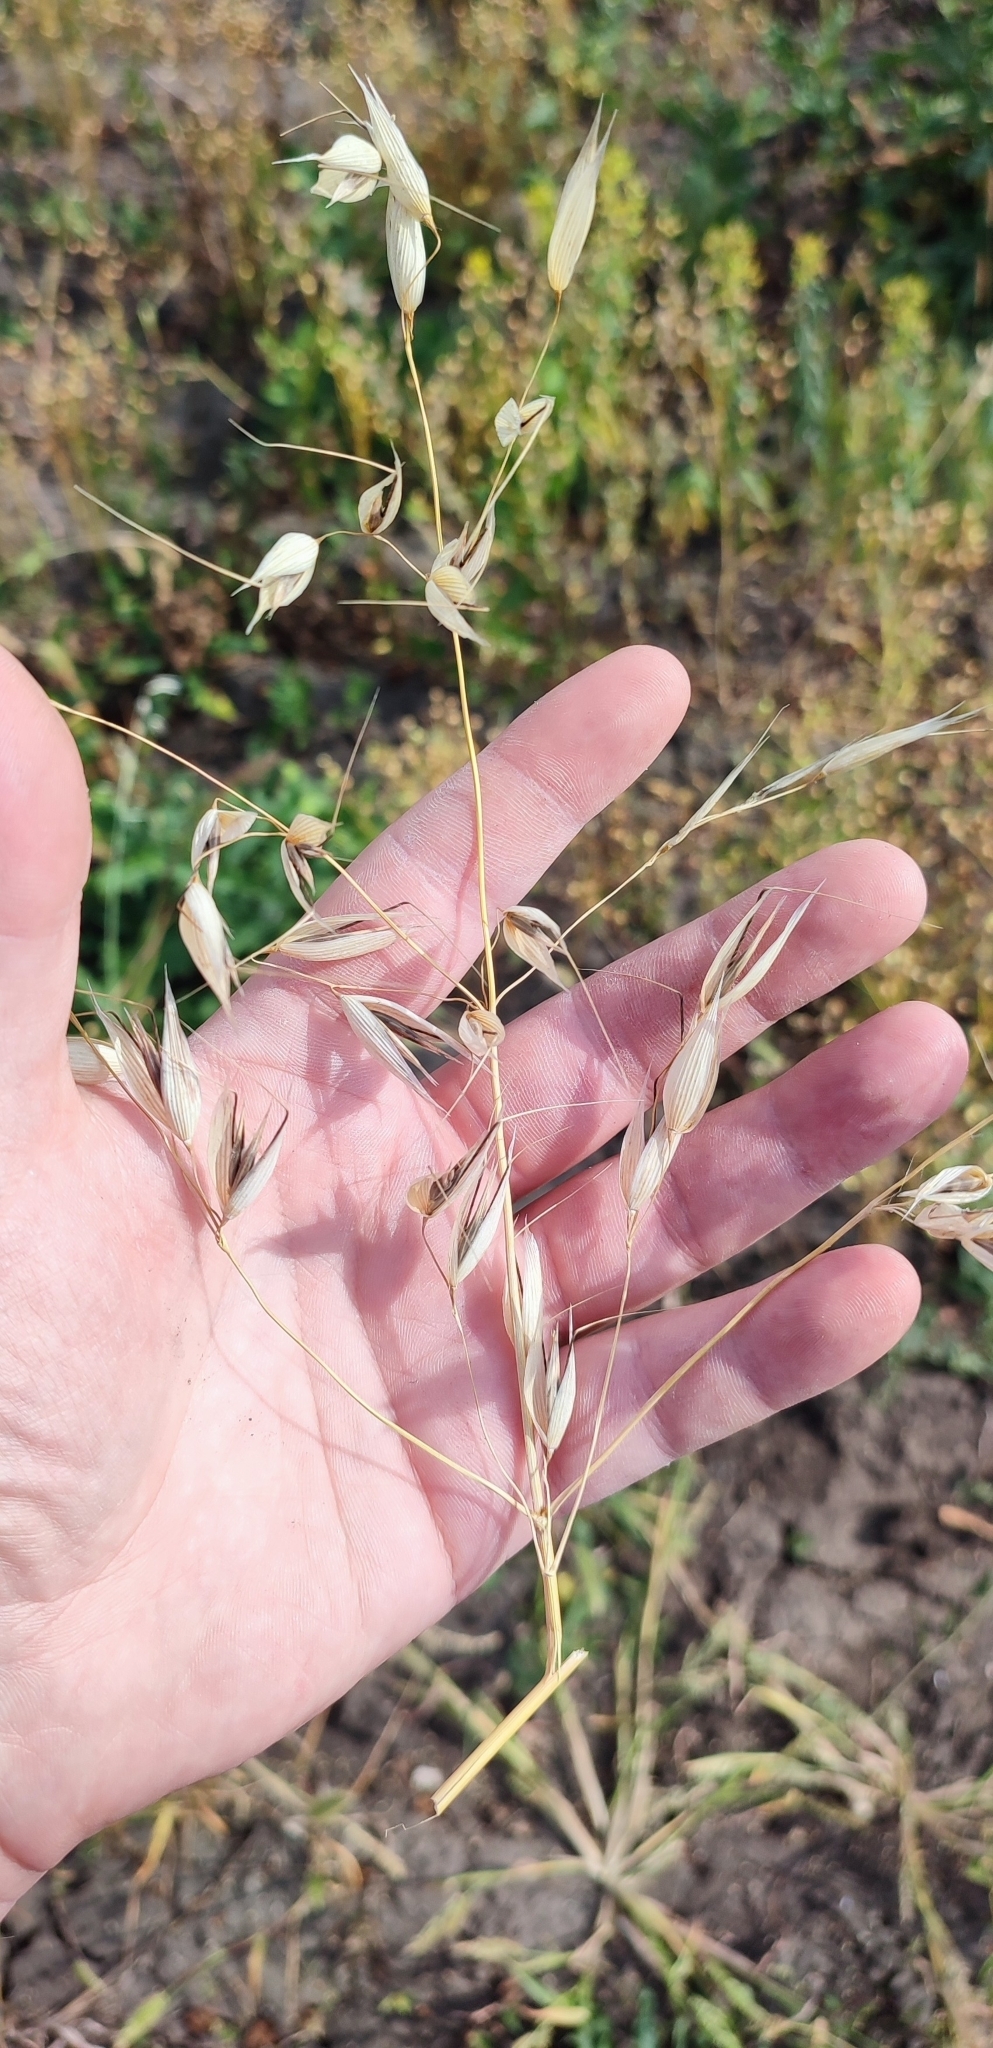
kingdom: Plantae
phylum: Tracheophyta
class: Liliopsida
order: Poales
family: Poaceae
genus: Avena
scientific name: Avena fatua
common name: Wild oat
